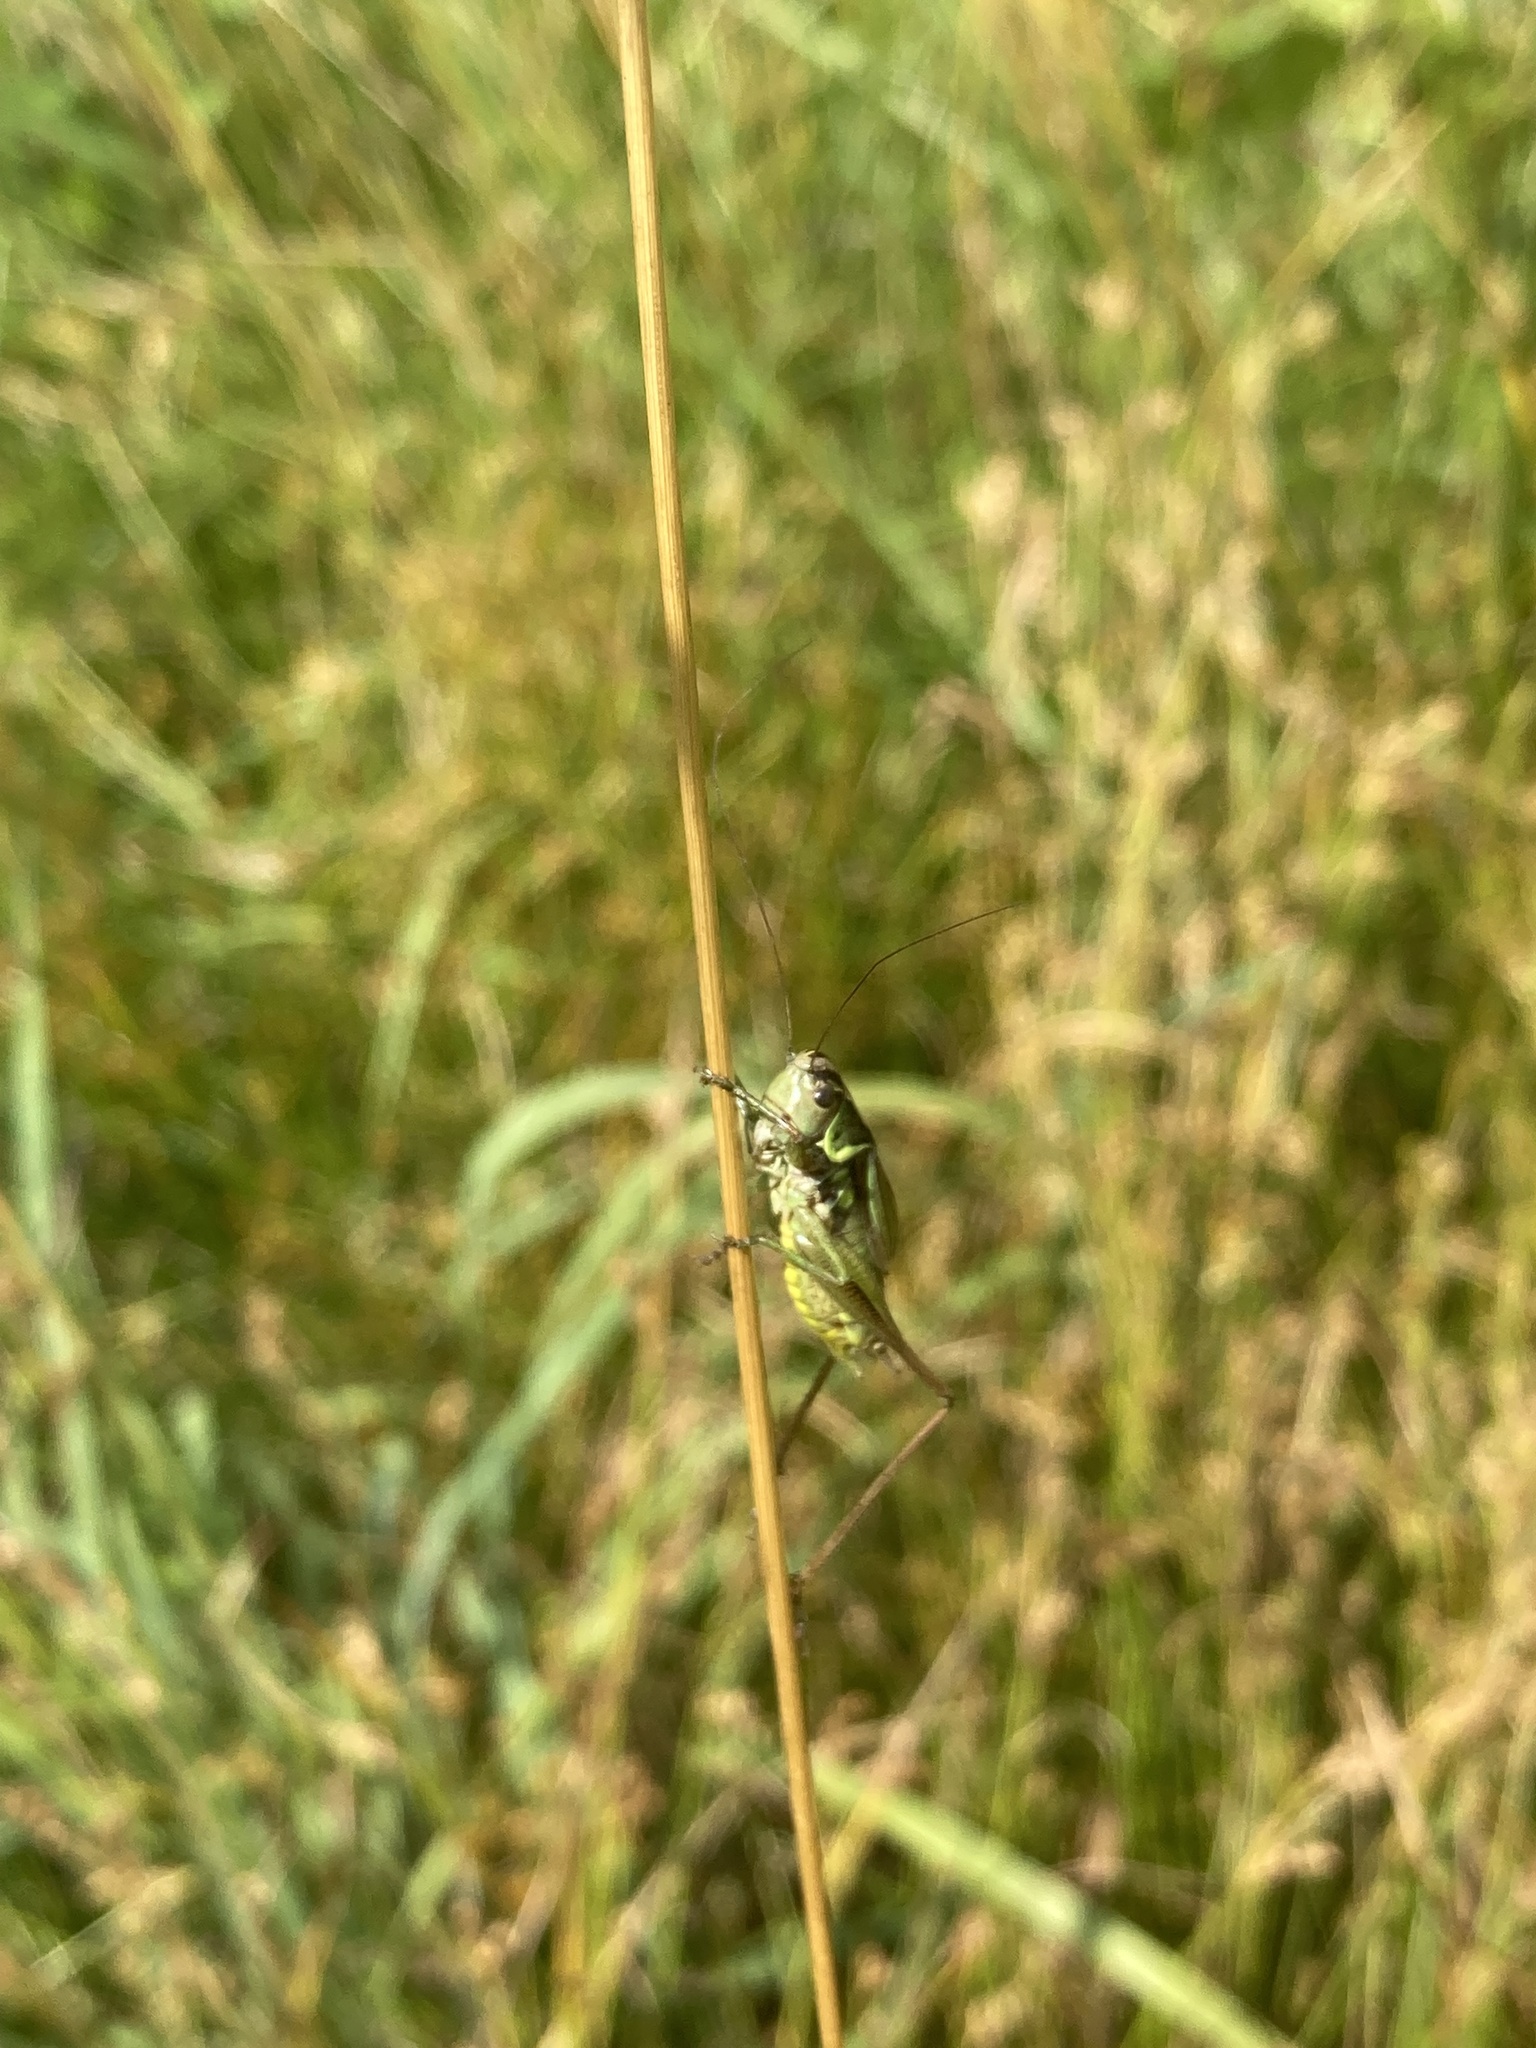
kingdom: Animalia
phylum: Arthropoda
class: Insecta
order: Orthoptera
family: Tettigoniidae
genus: Roeseliana
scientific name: Roeseliana roeselii
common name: Roesel's bush cricket
